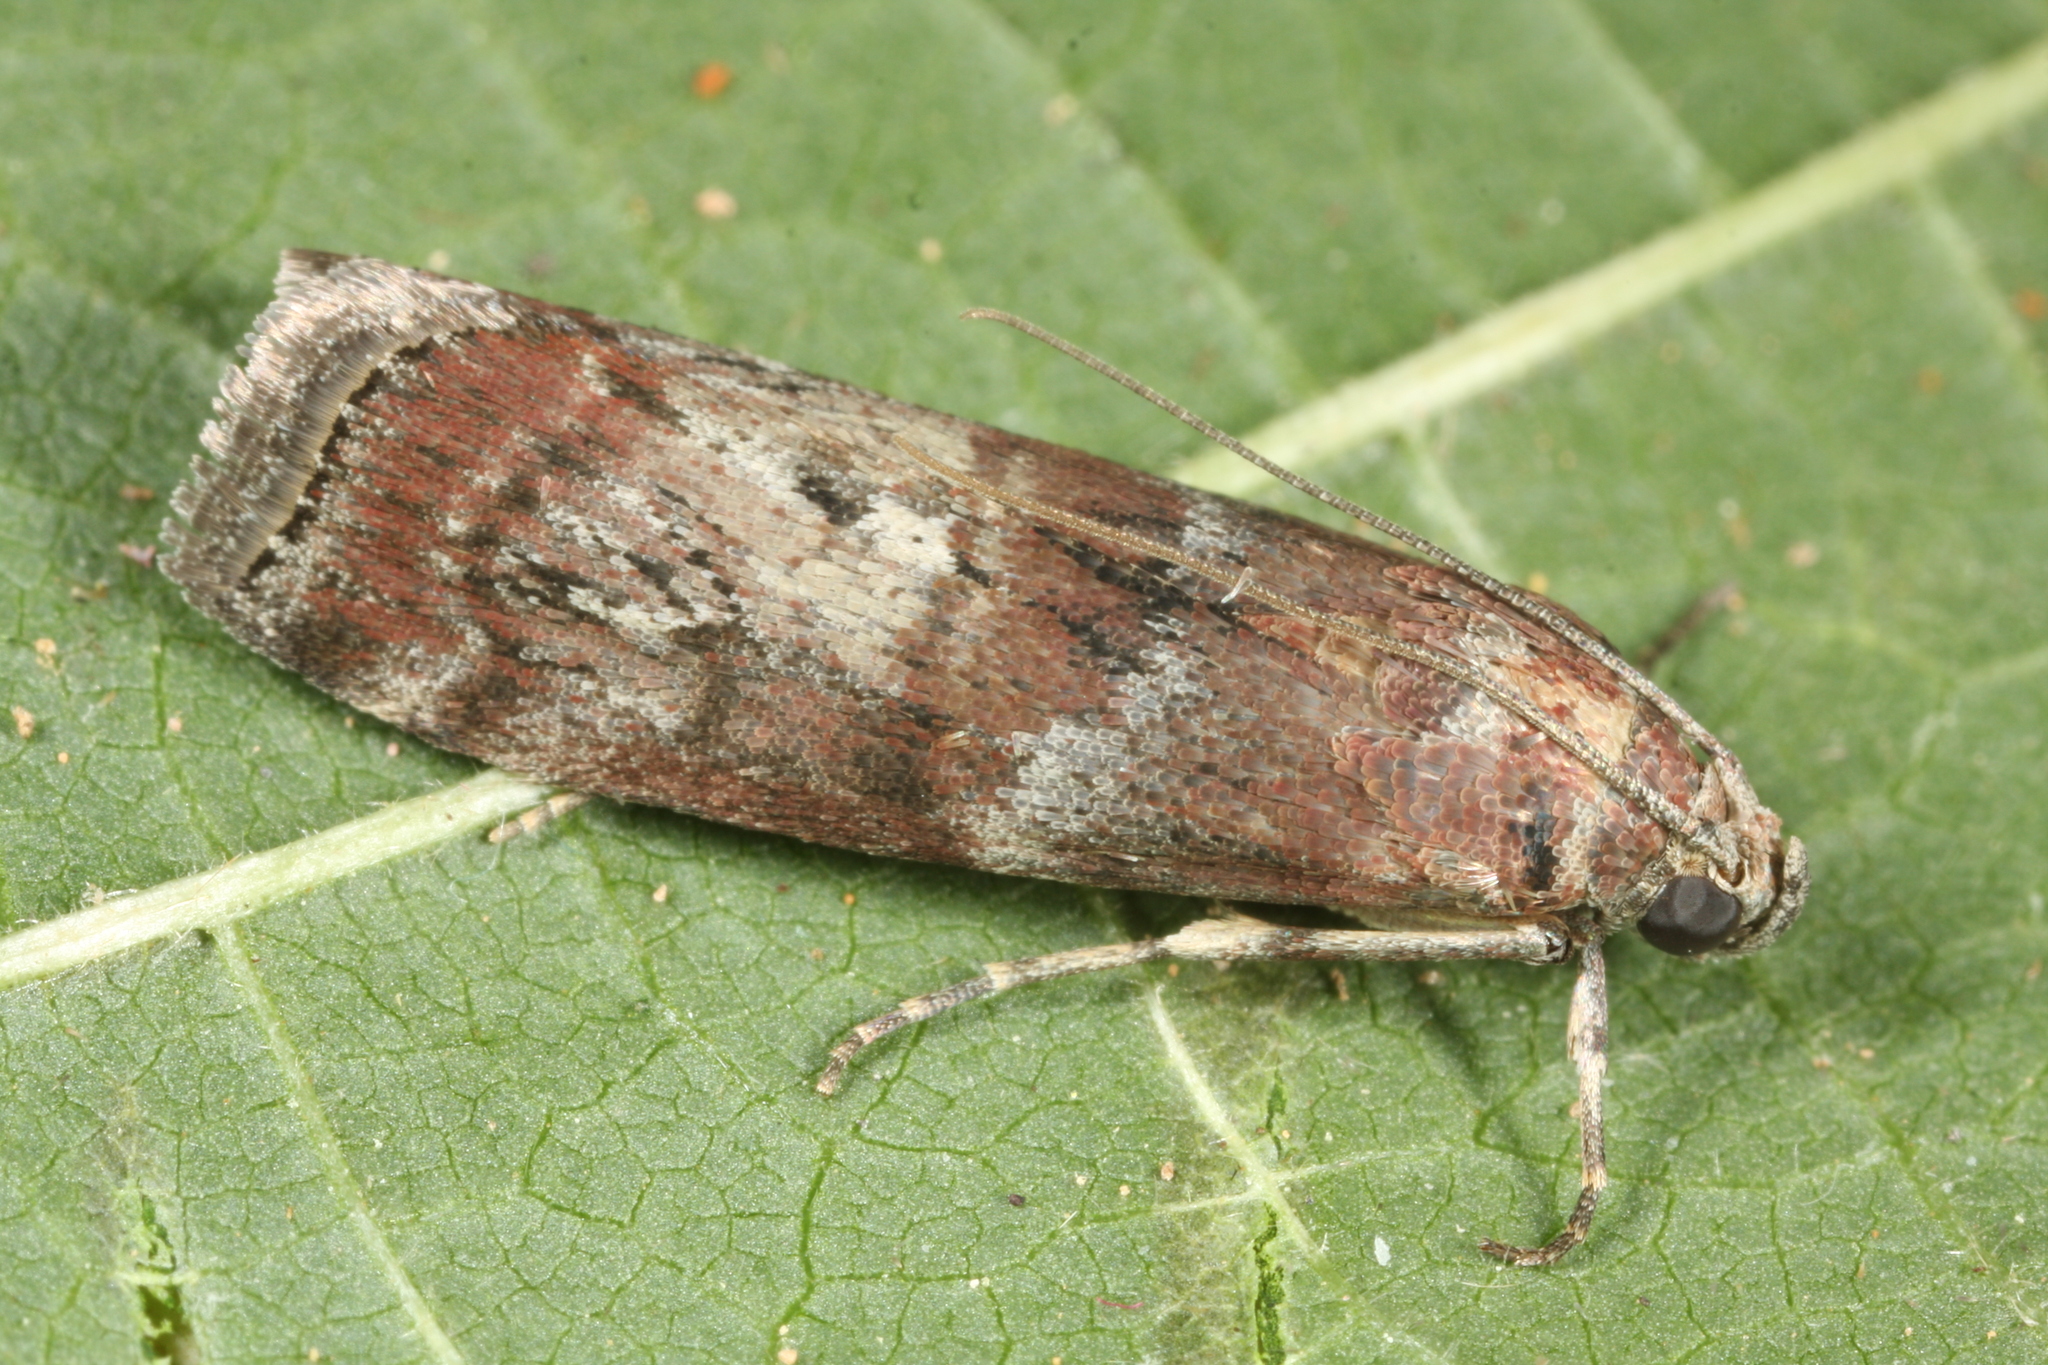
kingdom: Animalia
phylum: Arthropoda
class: Insecta
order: Lepidoptera
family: Pyralidae
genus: Phycita
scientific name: Phycita roborella
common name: Dotted oak knot-horn
